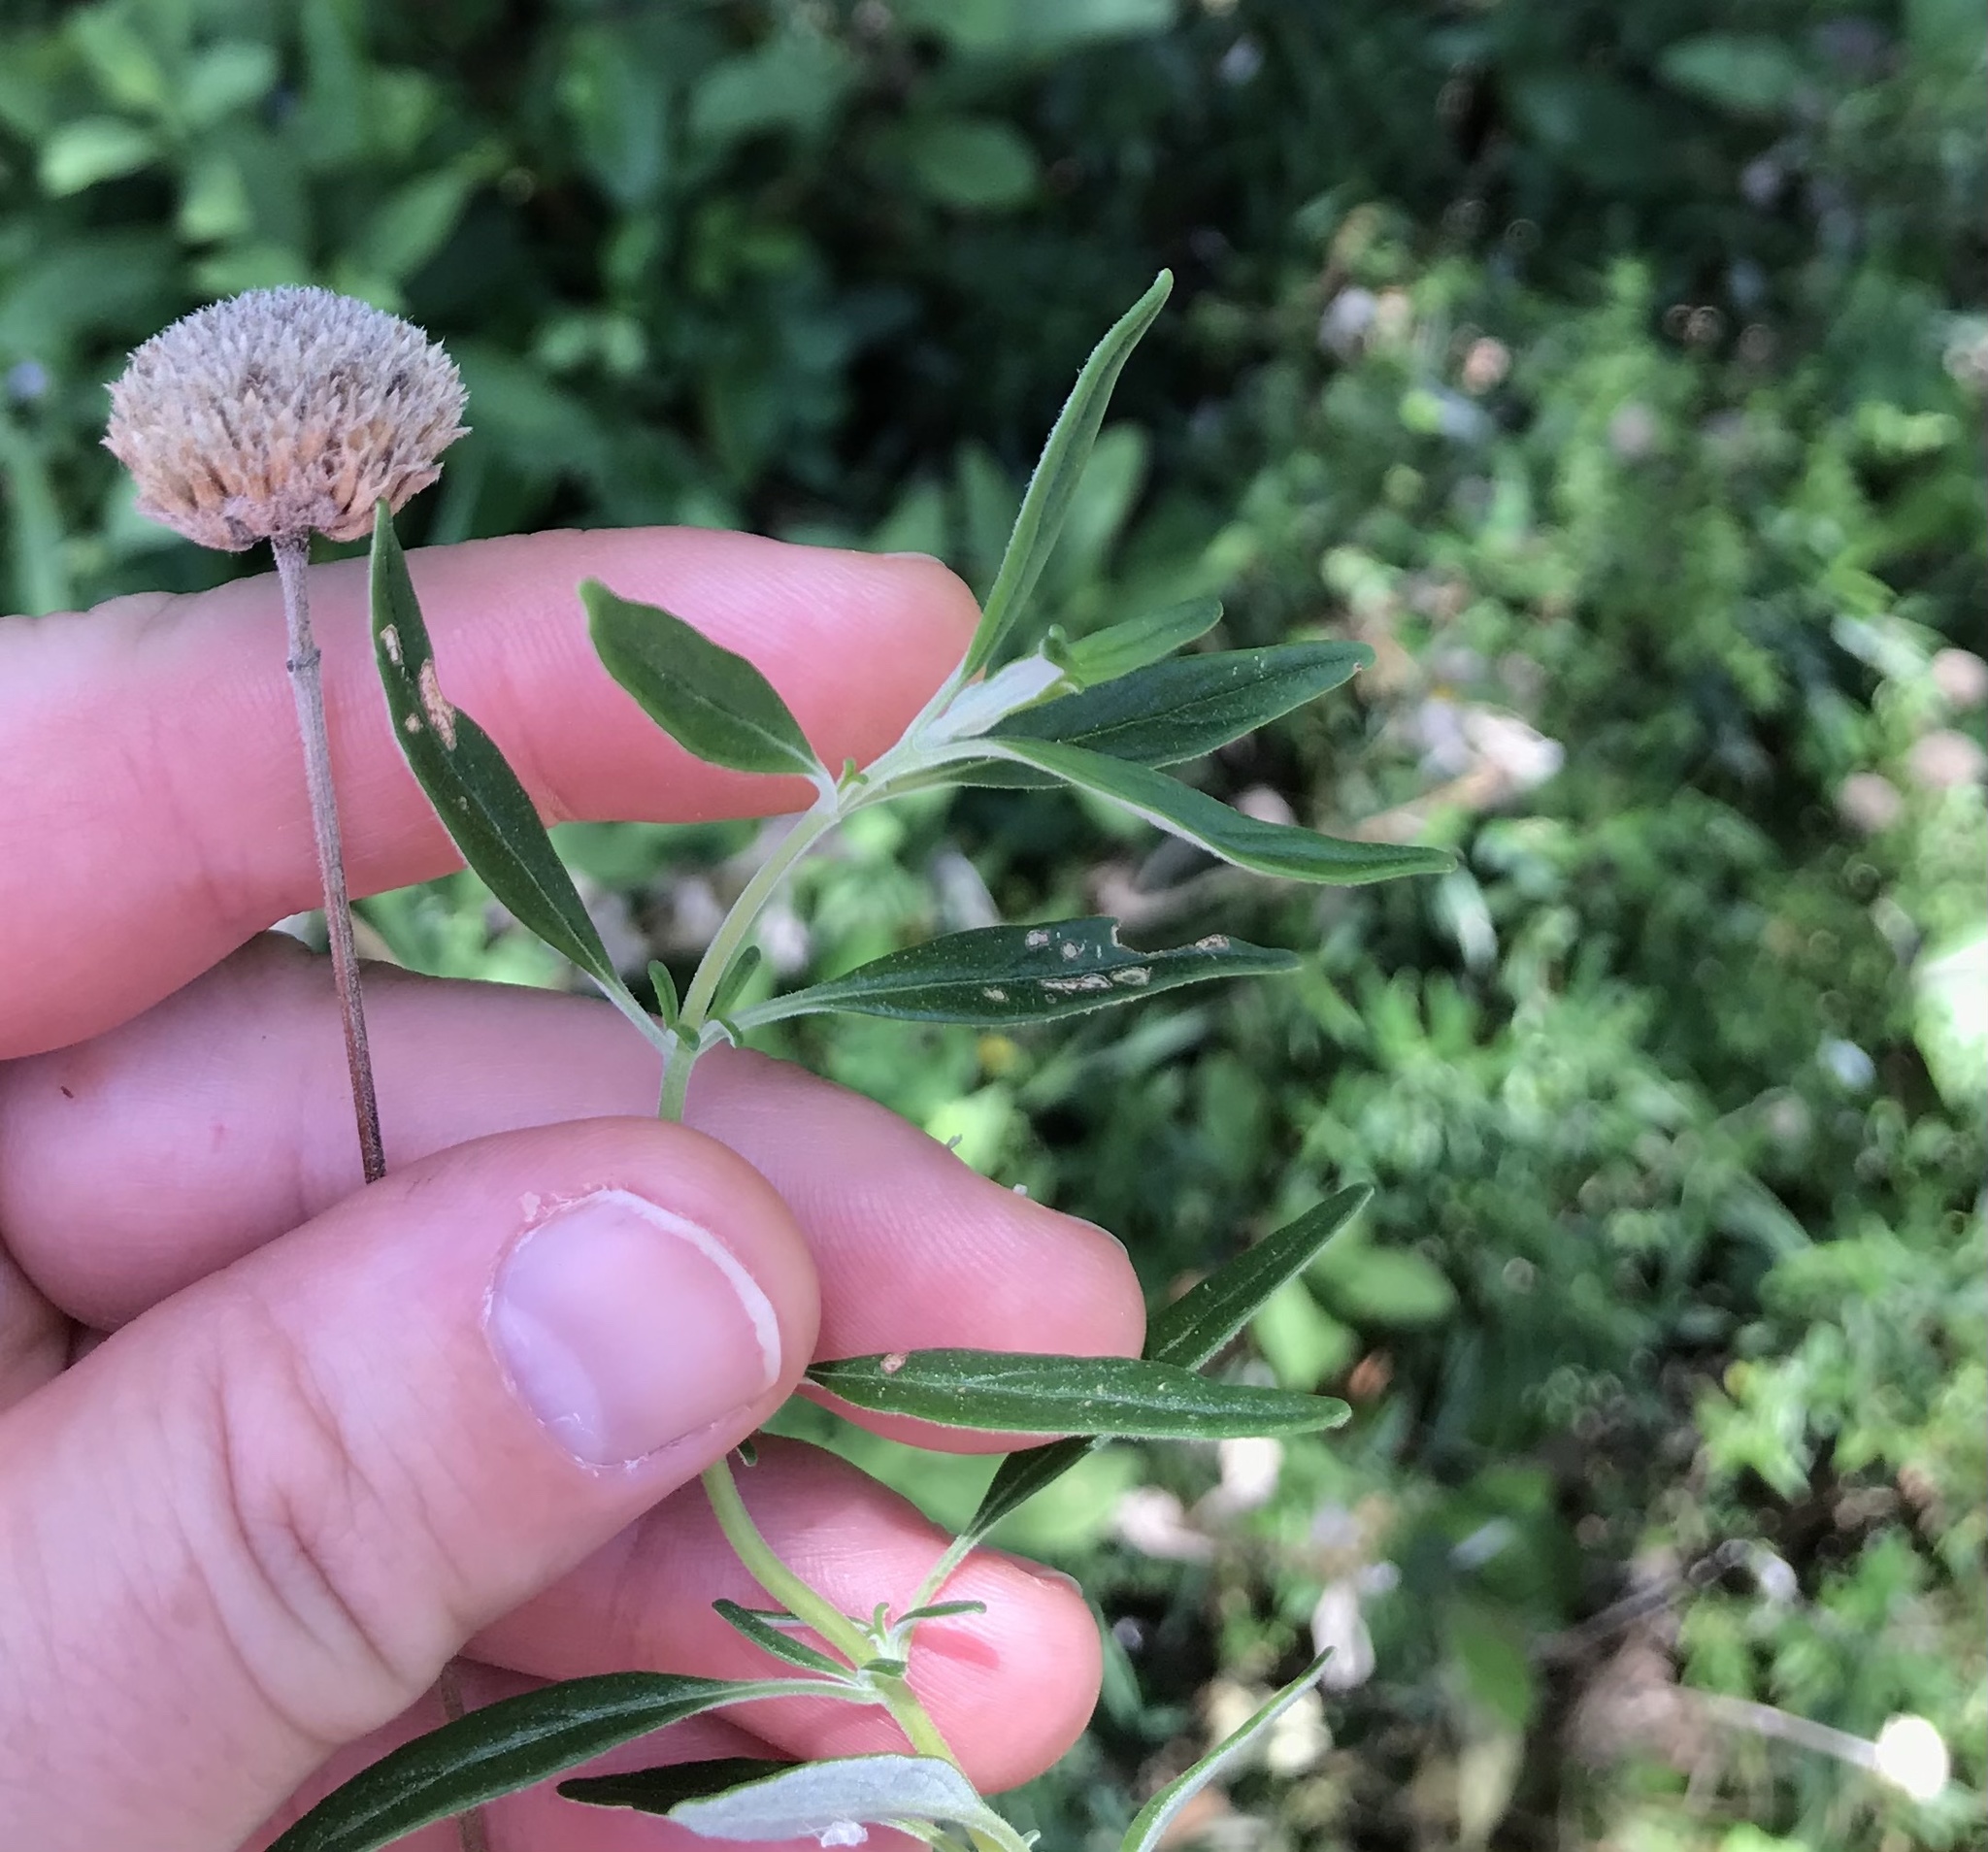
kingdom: Plantae
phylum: Tracheophyta
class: Magnoliopsida
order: Lamiales
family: Lamiaceae
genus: Monardella
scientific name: Monardella hypoleuca
